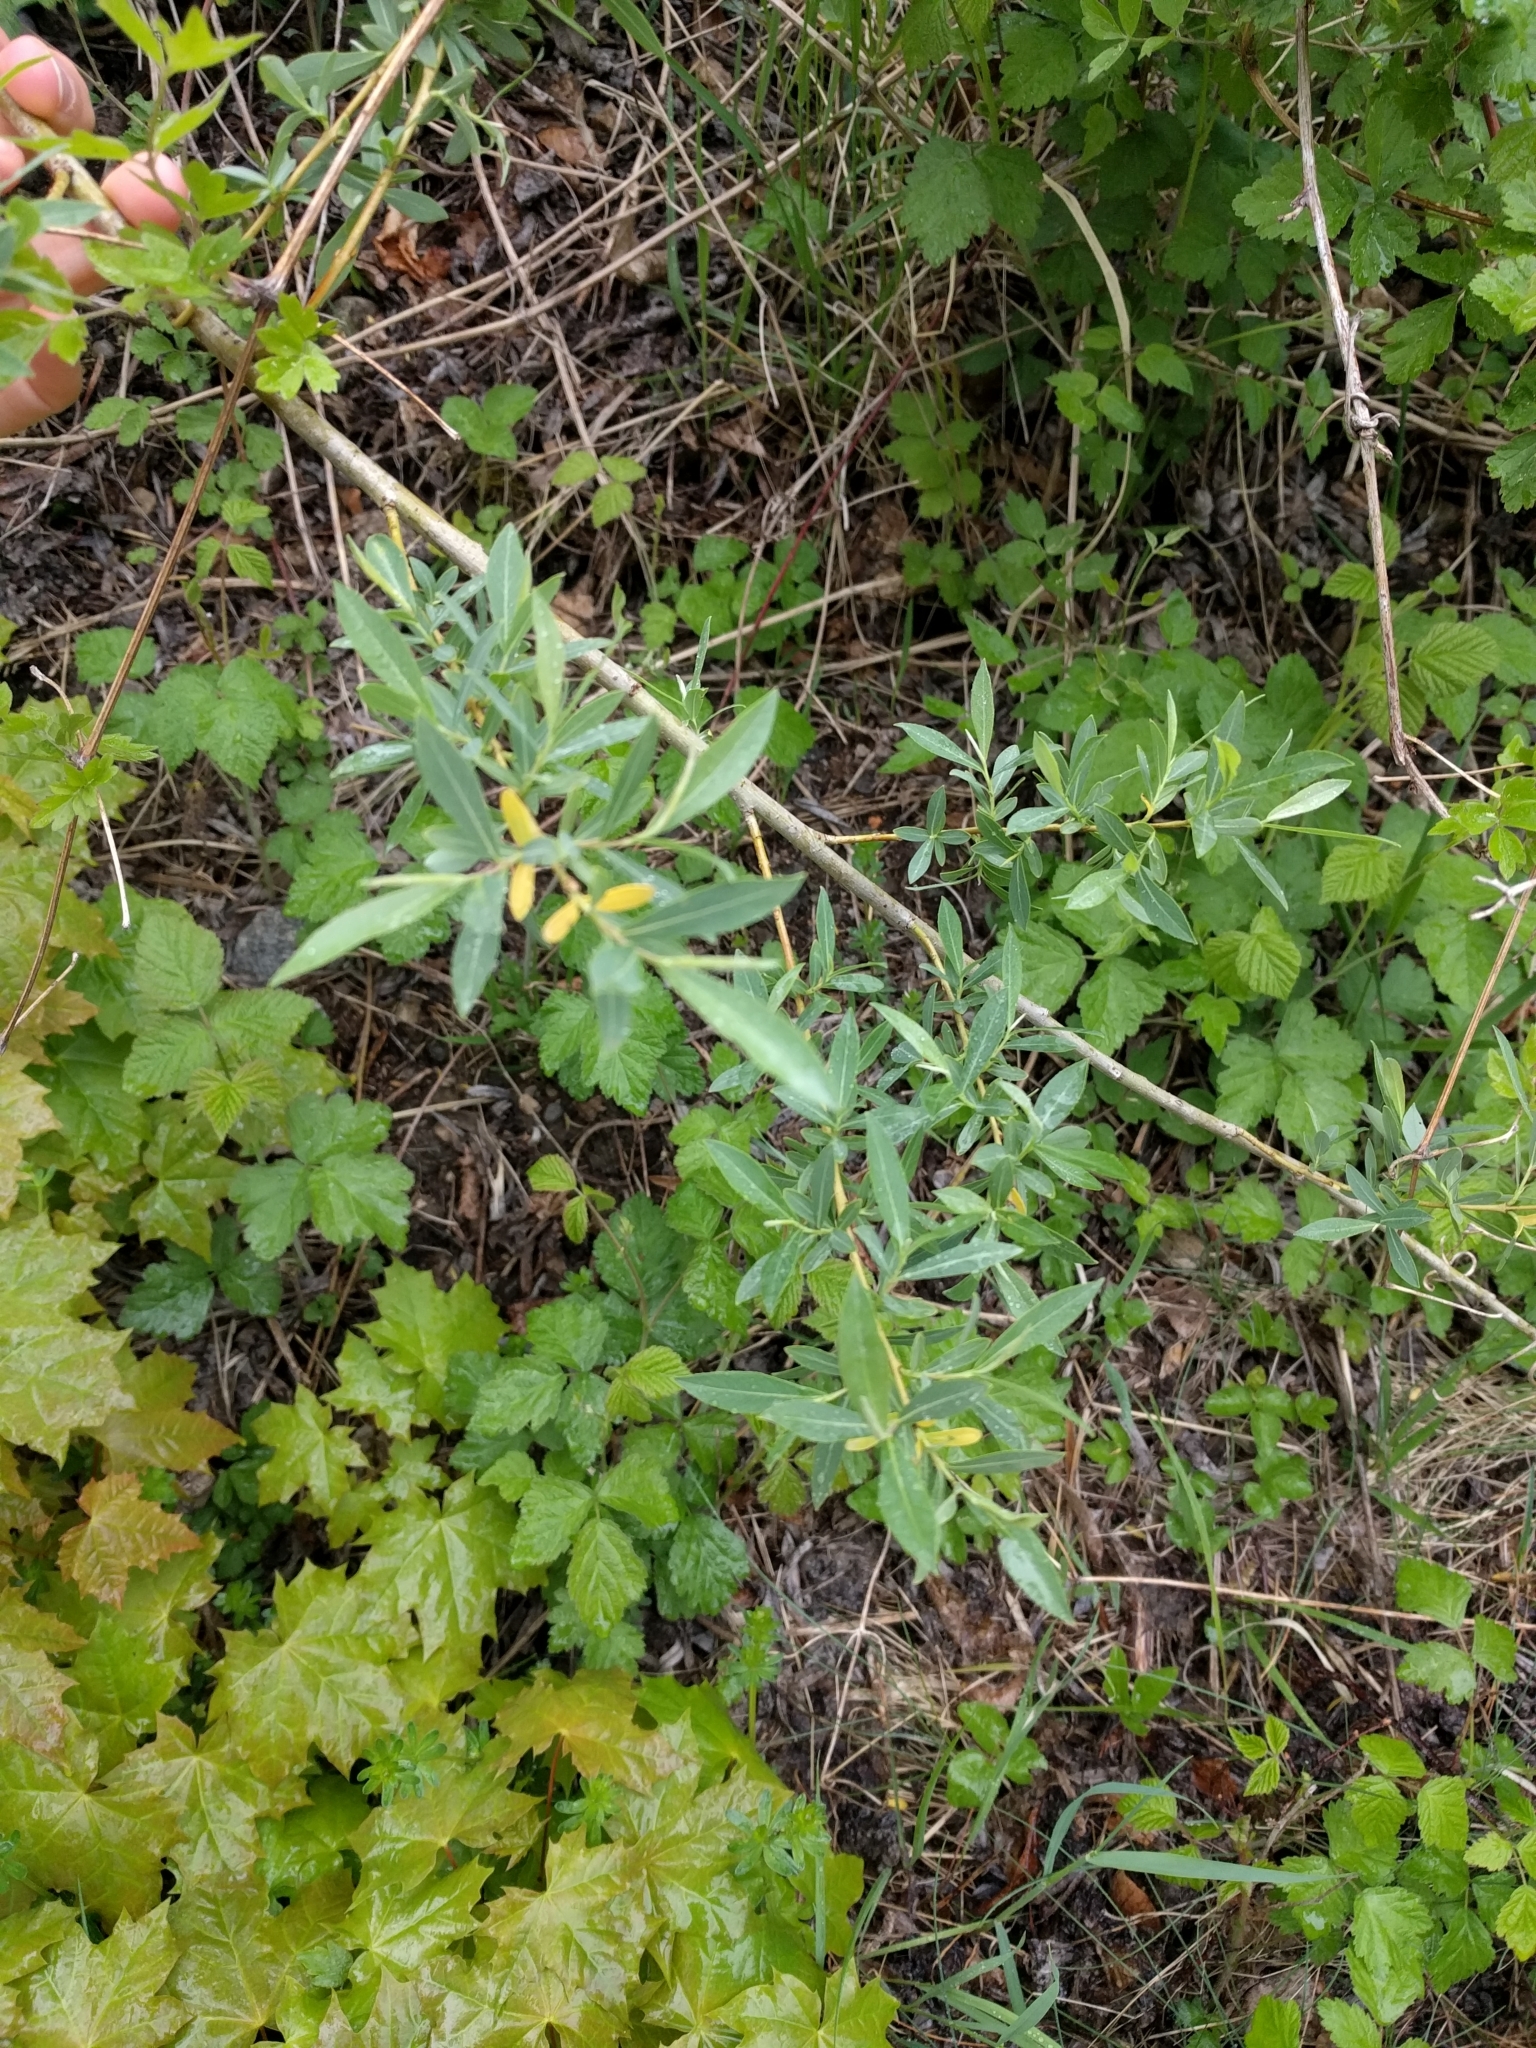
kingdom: Plantae
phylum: Tracheophyta
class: Magnoliopsida
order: Malpighiales
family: Salicaceae
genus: Salix
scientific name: Salix purpurea
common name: Purple willow
